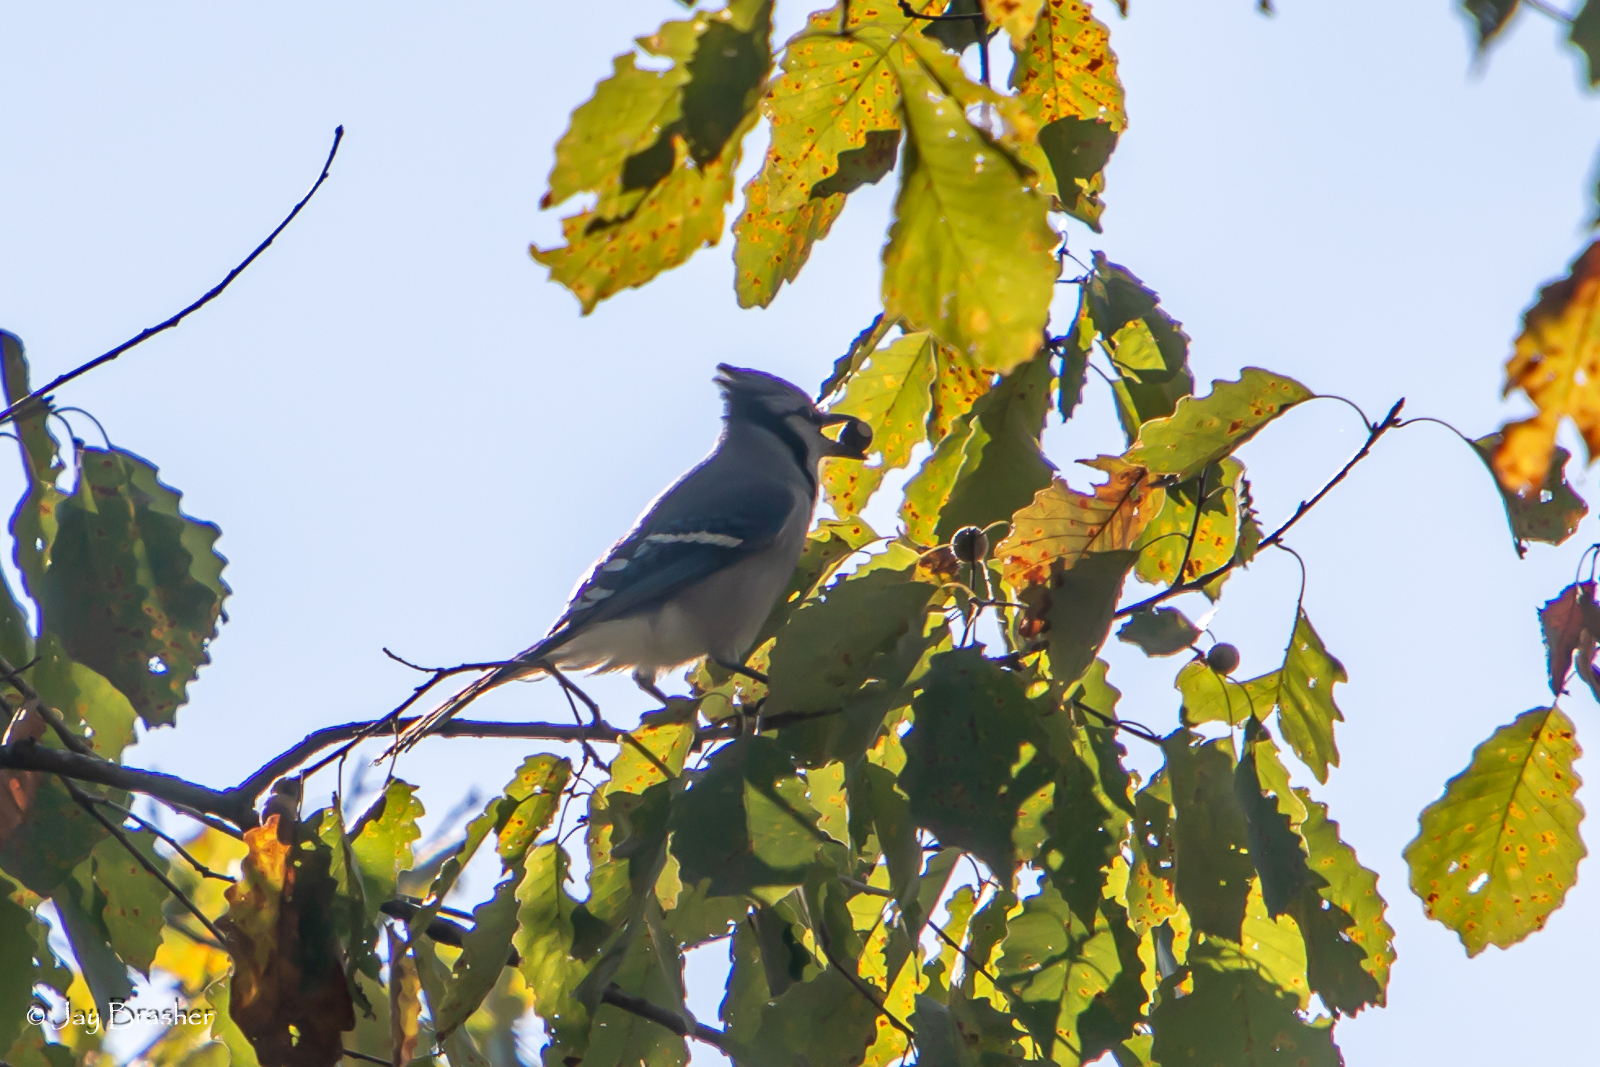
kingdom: Animalia
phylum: Chordata
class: Aves
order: Passeriformes
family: Corvidae
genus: Cyanocitta
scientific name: Cyanocitta cristata
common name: Blue jay
